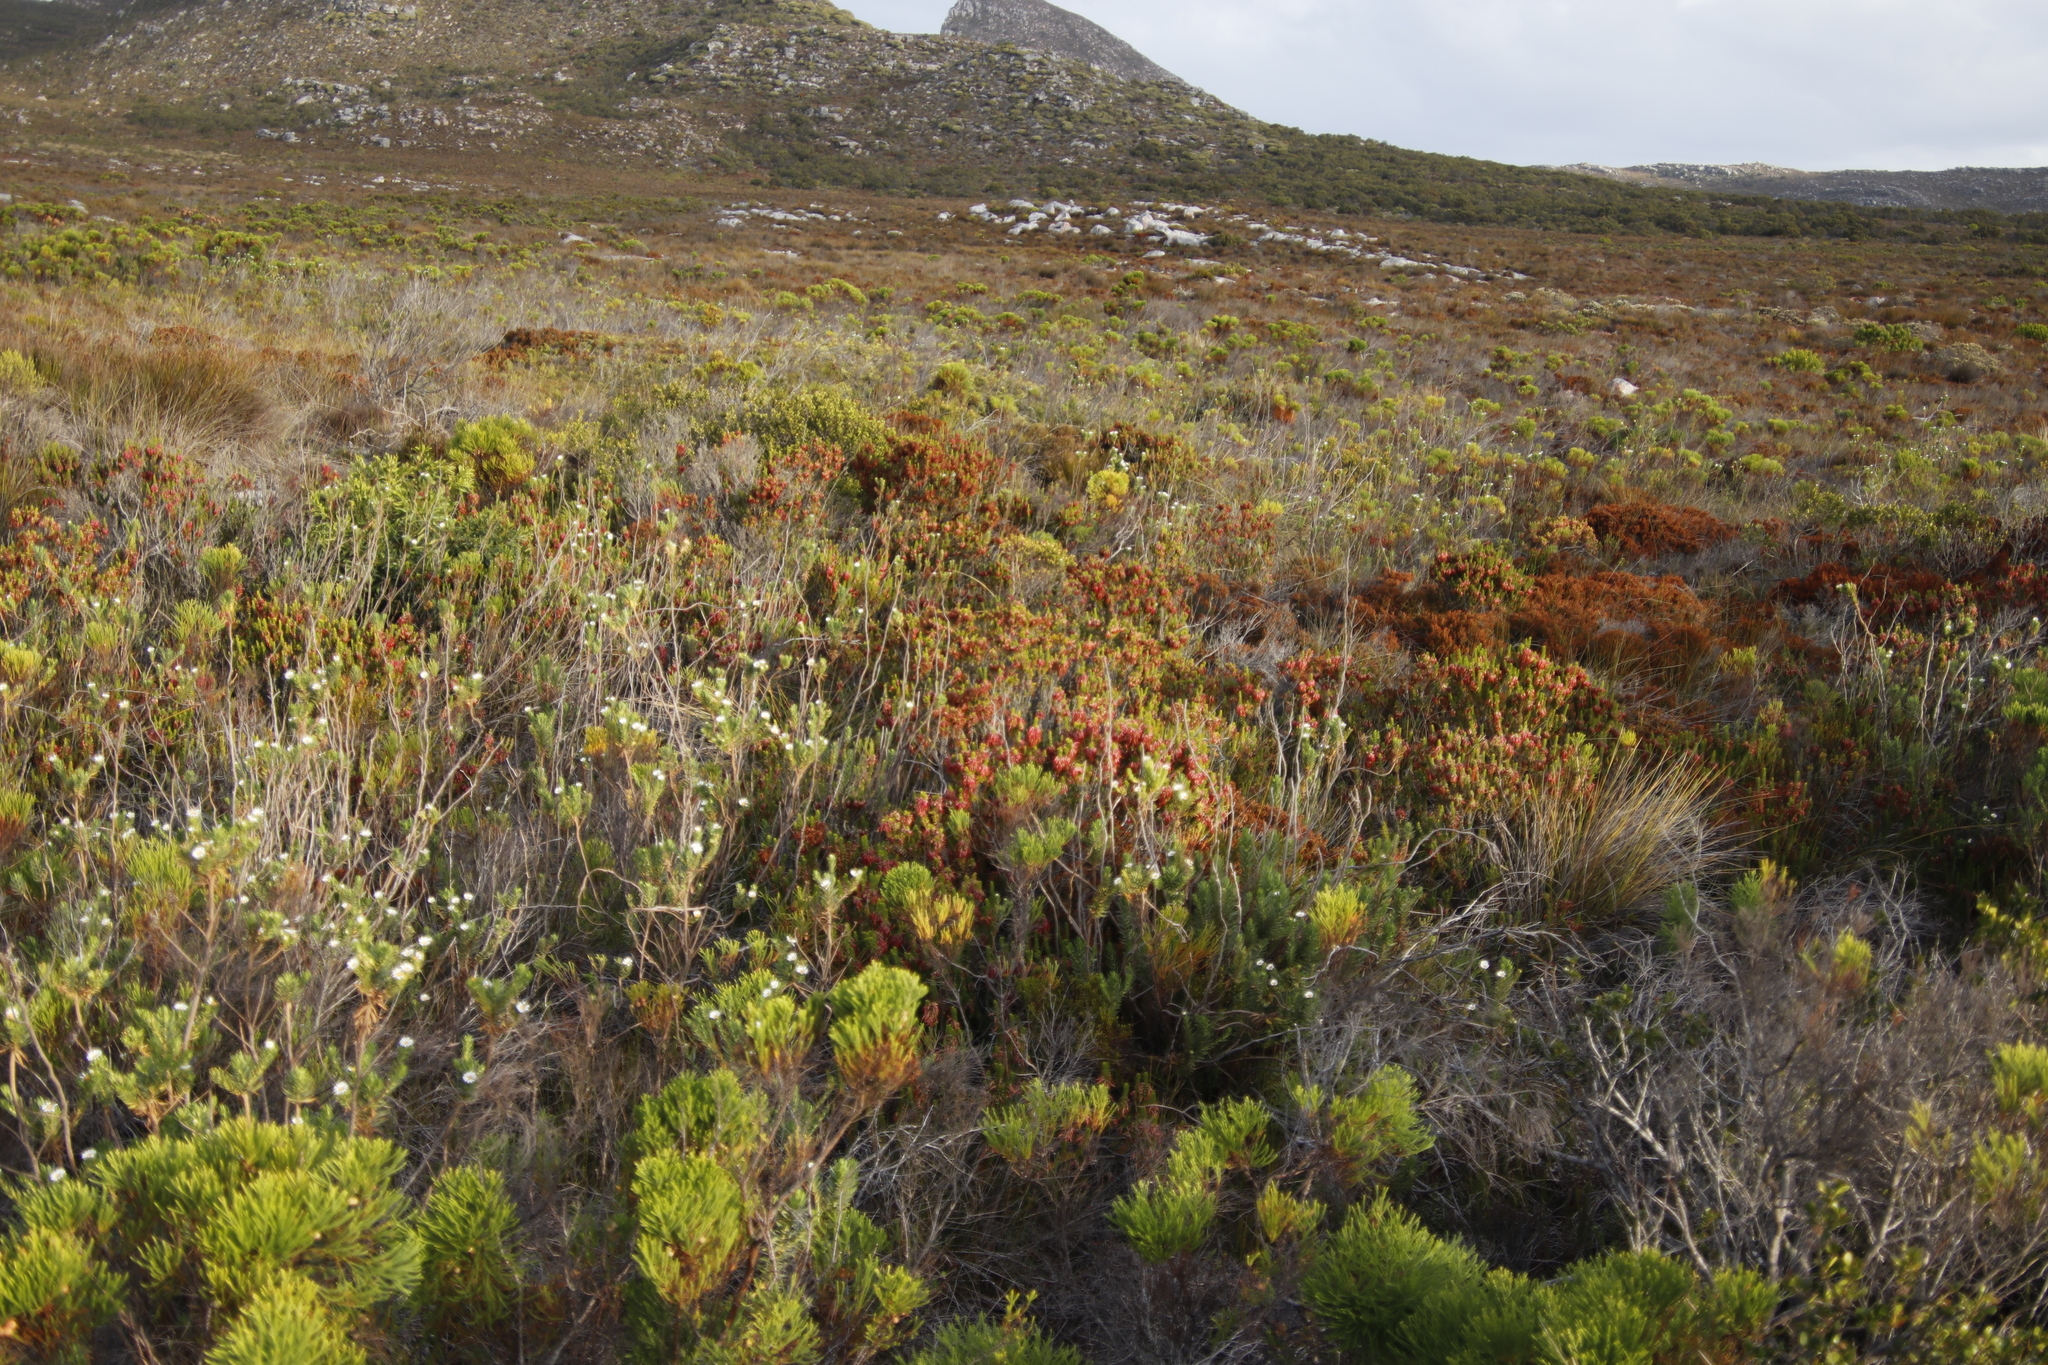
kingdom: Plantae
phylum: Tracheophyta
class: Magnoliopsida
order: Ericales
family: Ericaceae
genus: Erica
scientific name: Erica coccinea
